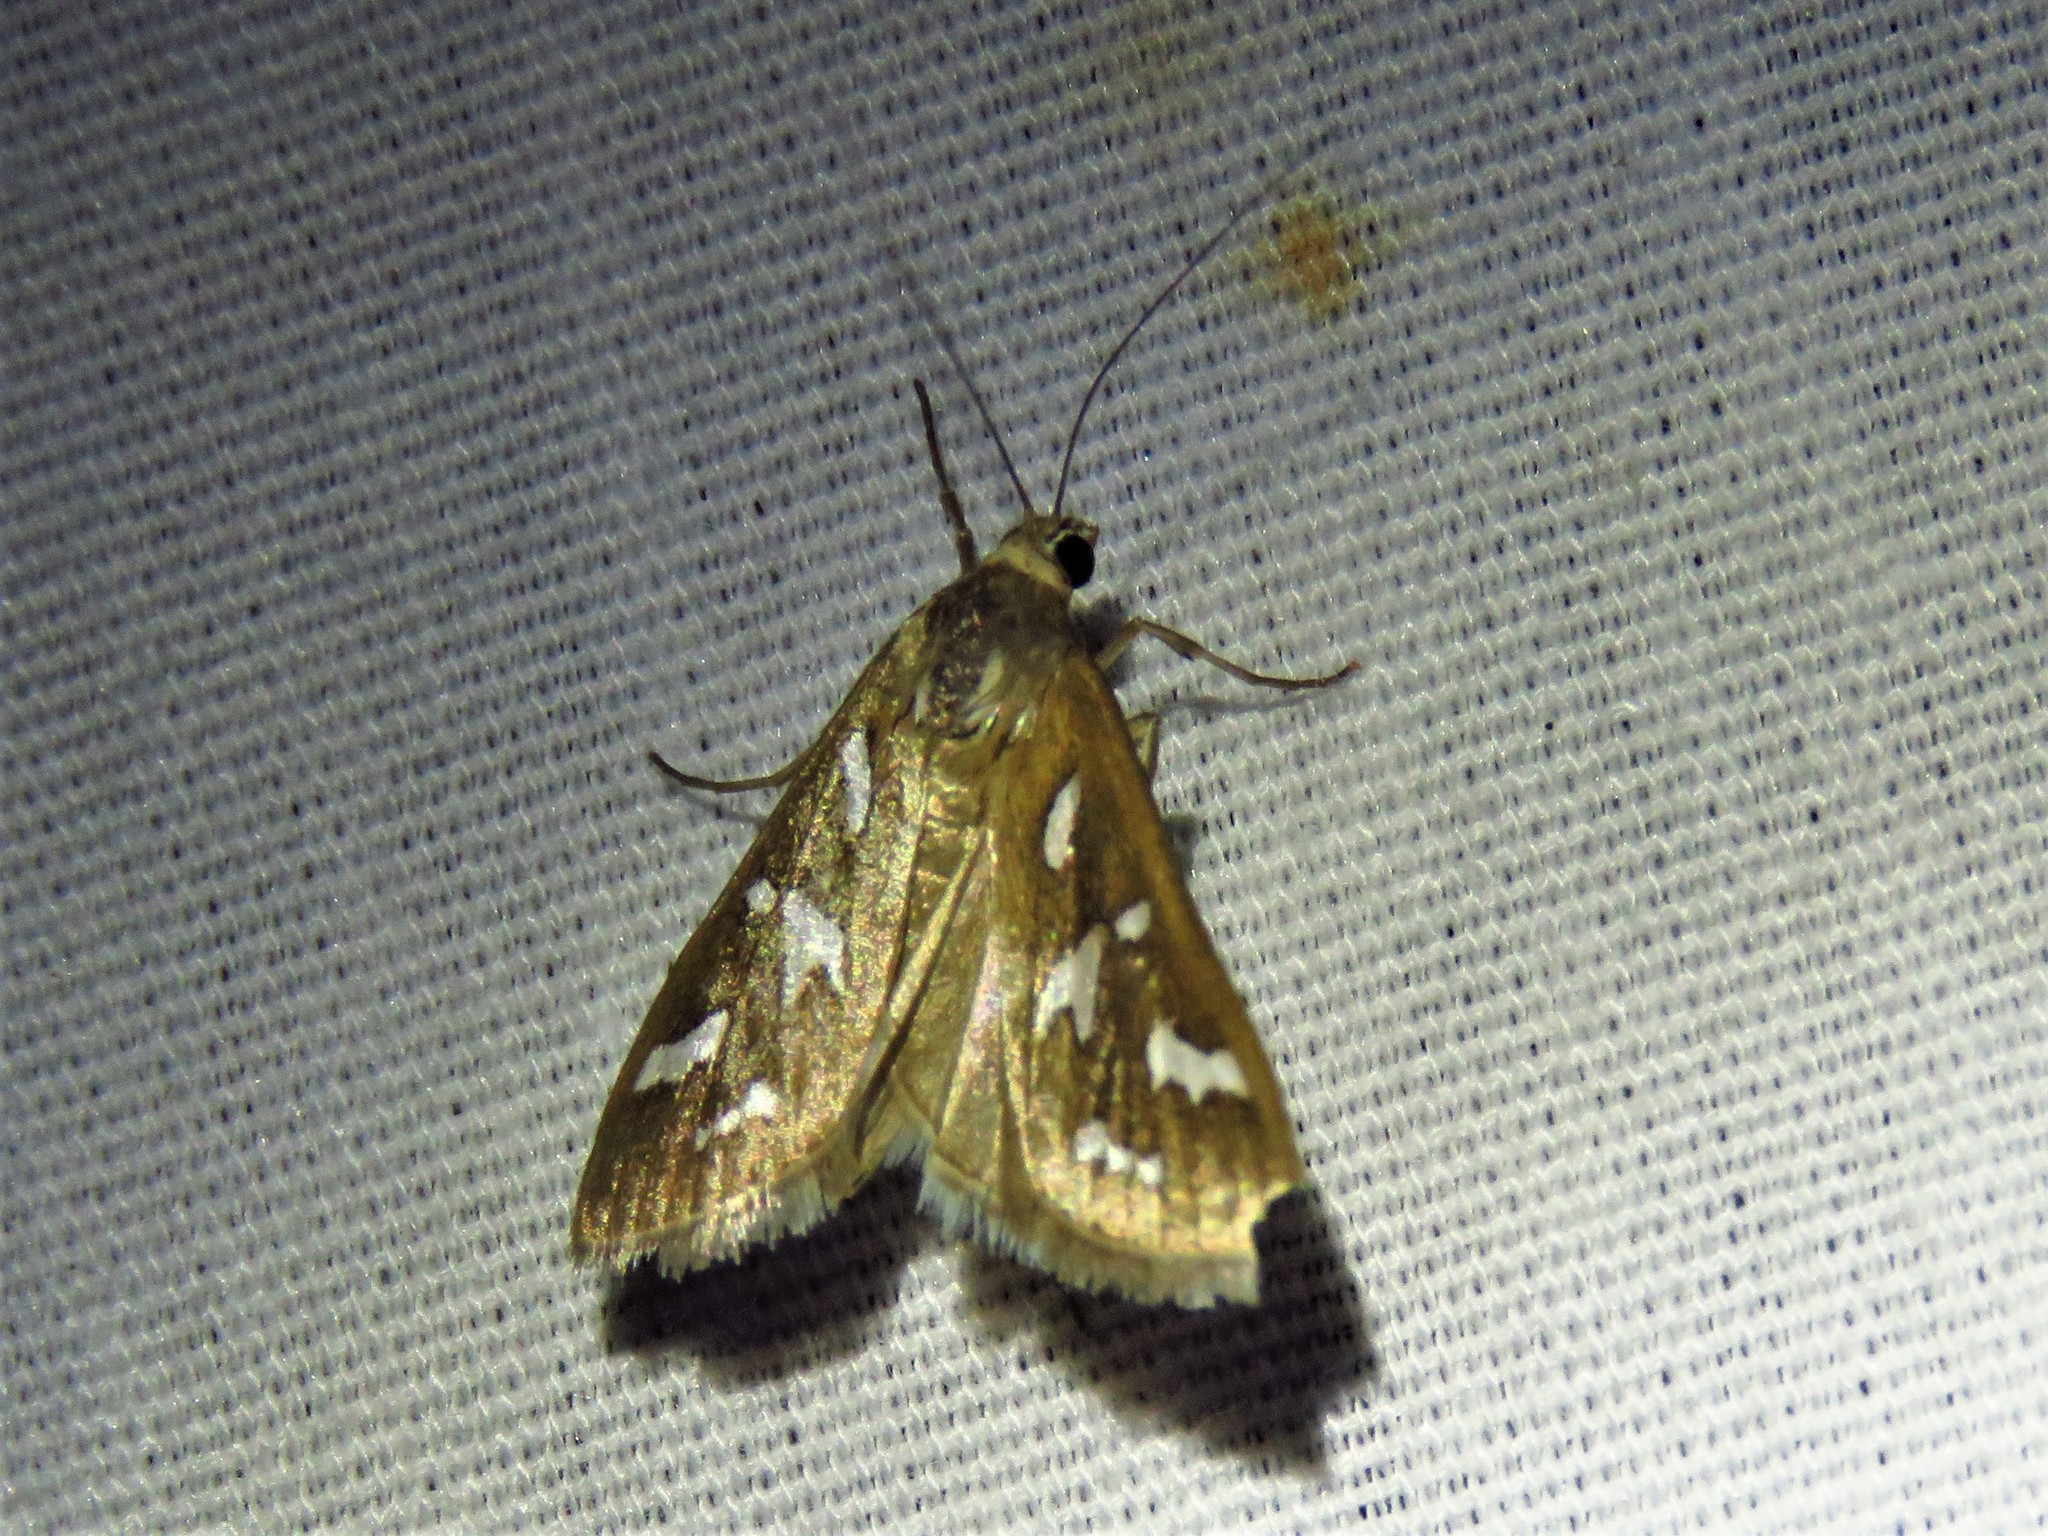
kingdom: Animalia
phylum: Arthropoda
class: Insecta
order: Lepidoptera
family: Crambidae
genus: Diastictis
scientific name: Diastictis fracturalis
